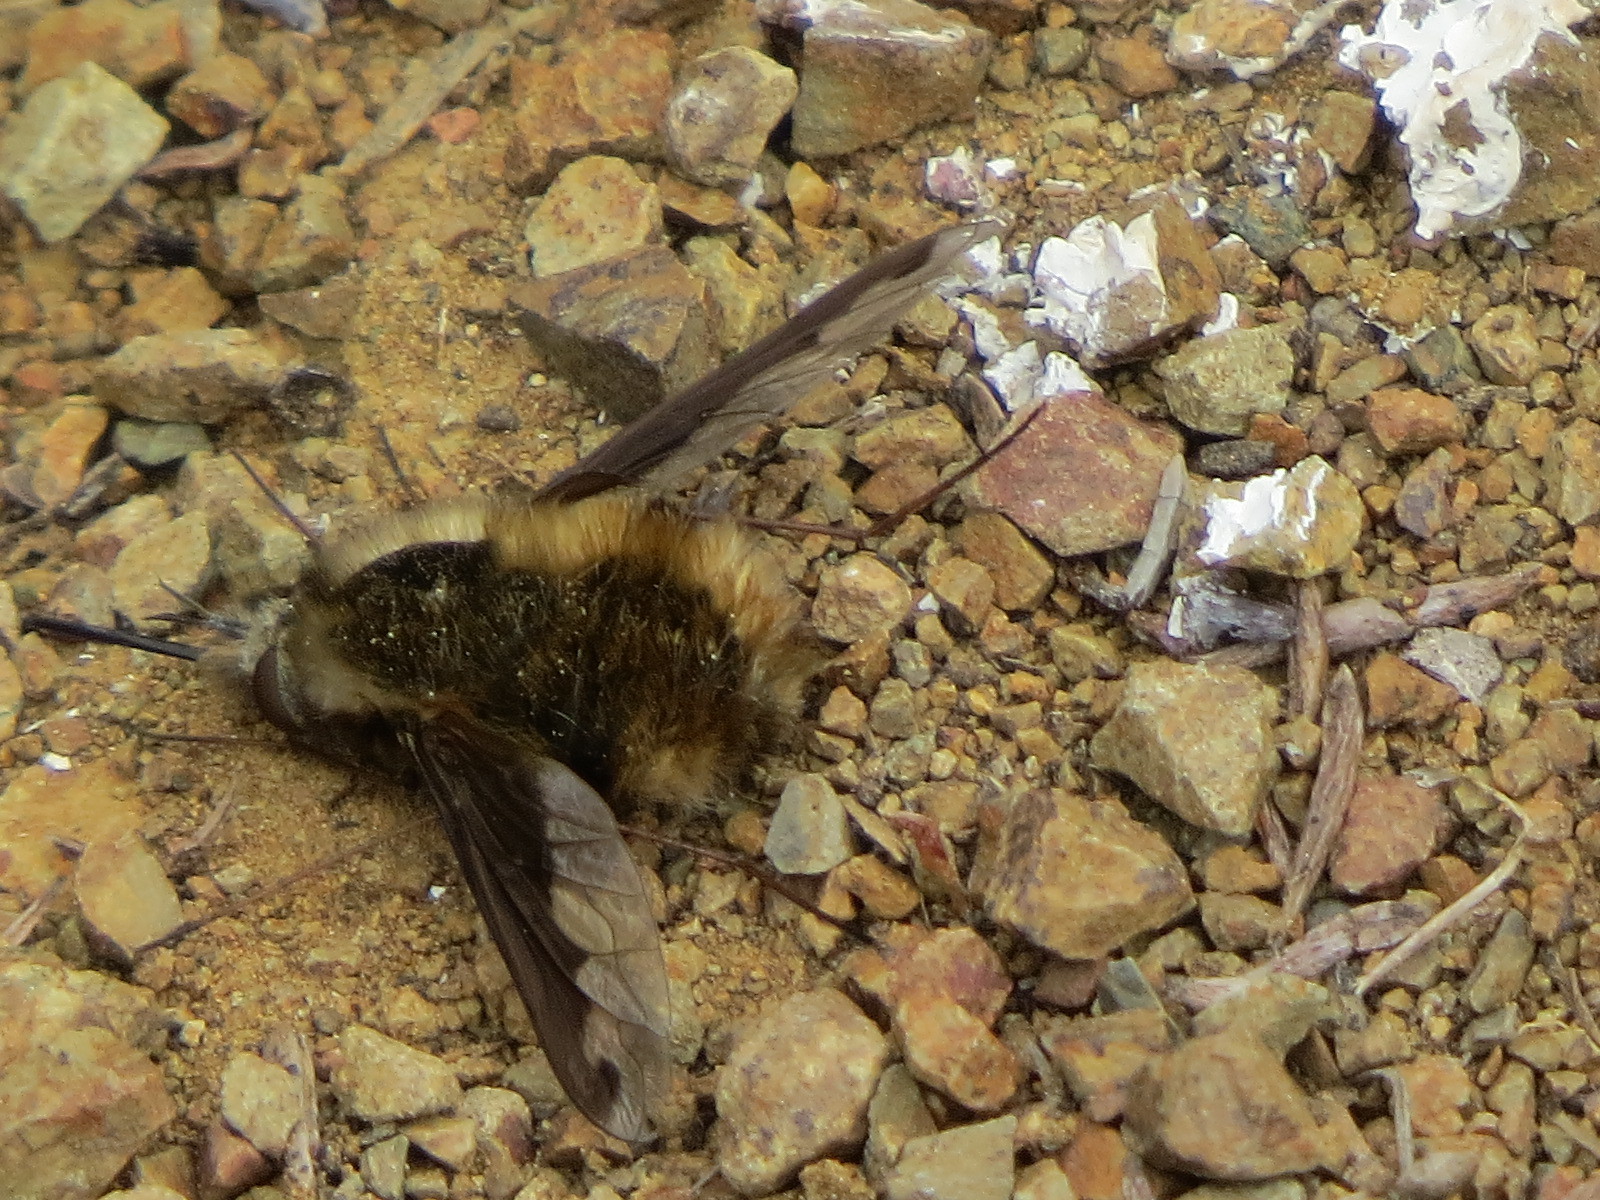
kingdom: Animalia
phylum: Arthropoda
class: Insecta
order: Diptera
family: Bombyliidae
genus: Bombylius
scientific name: Bombylius major
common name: Bee fly
